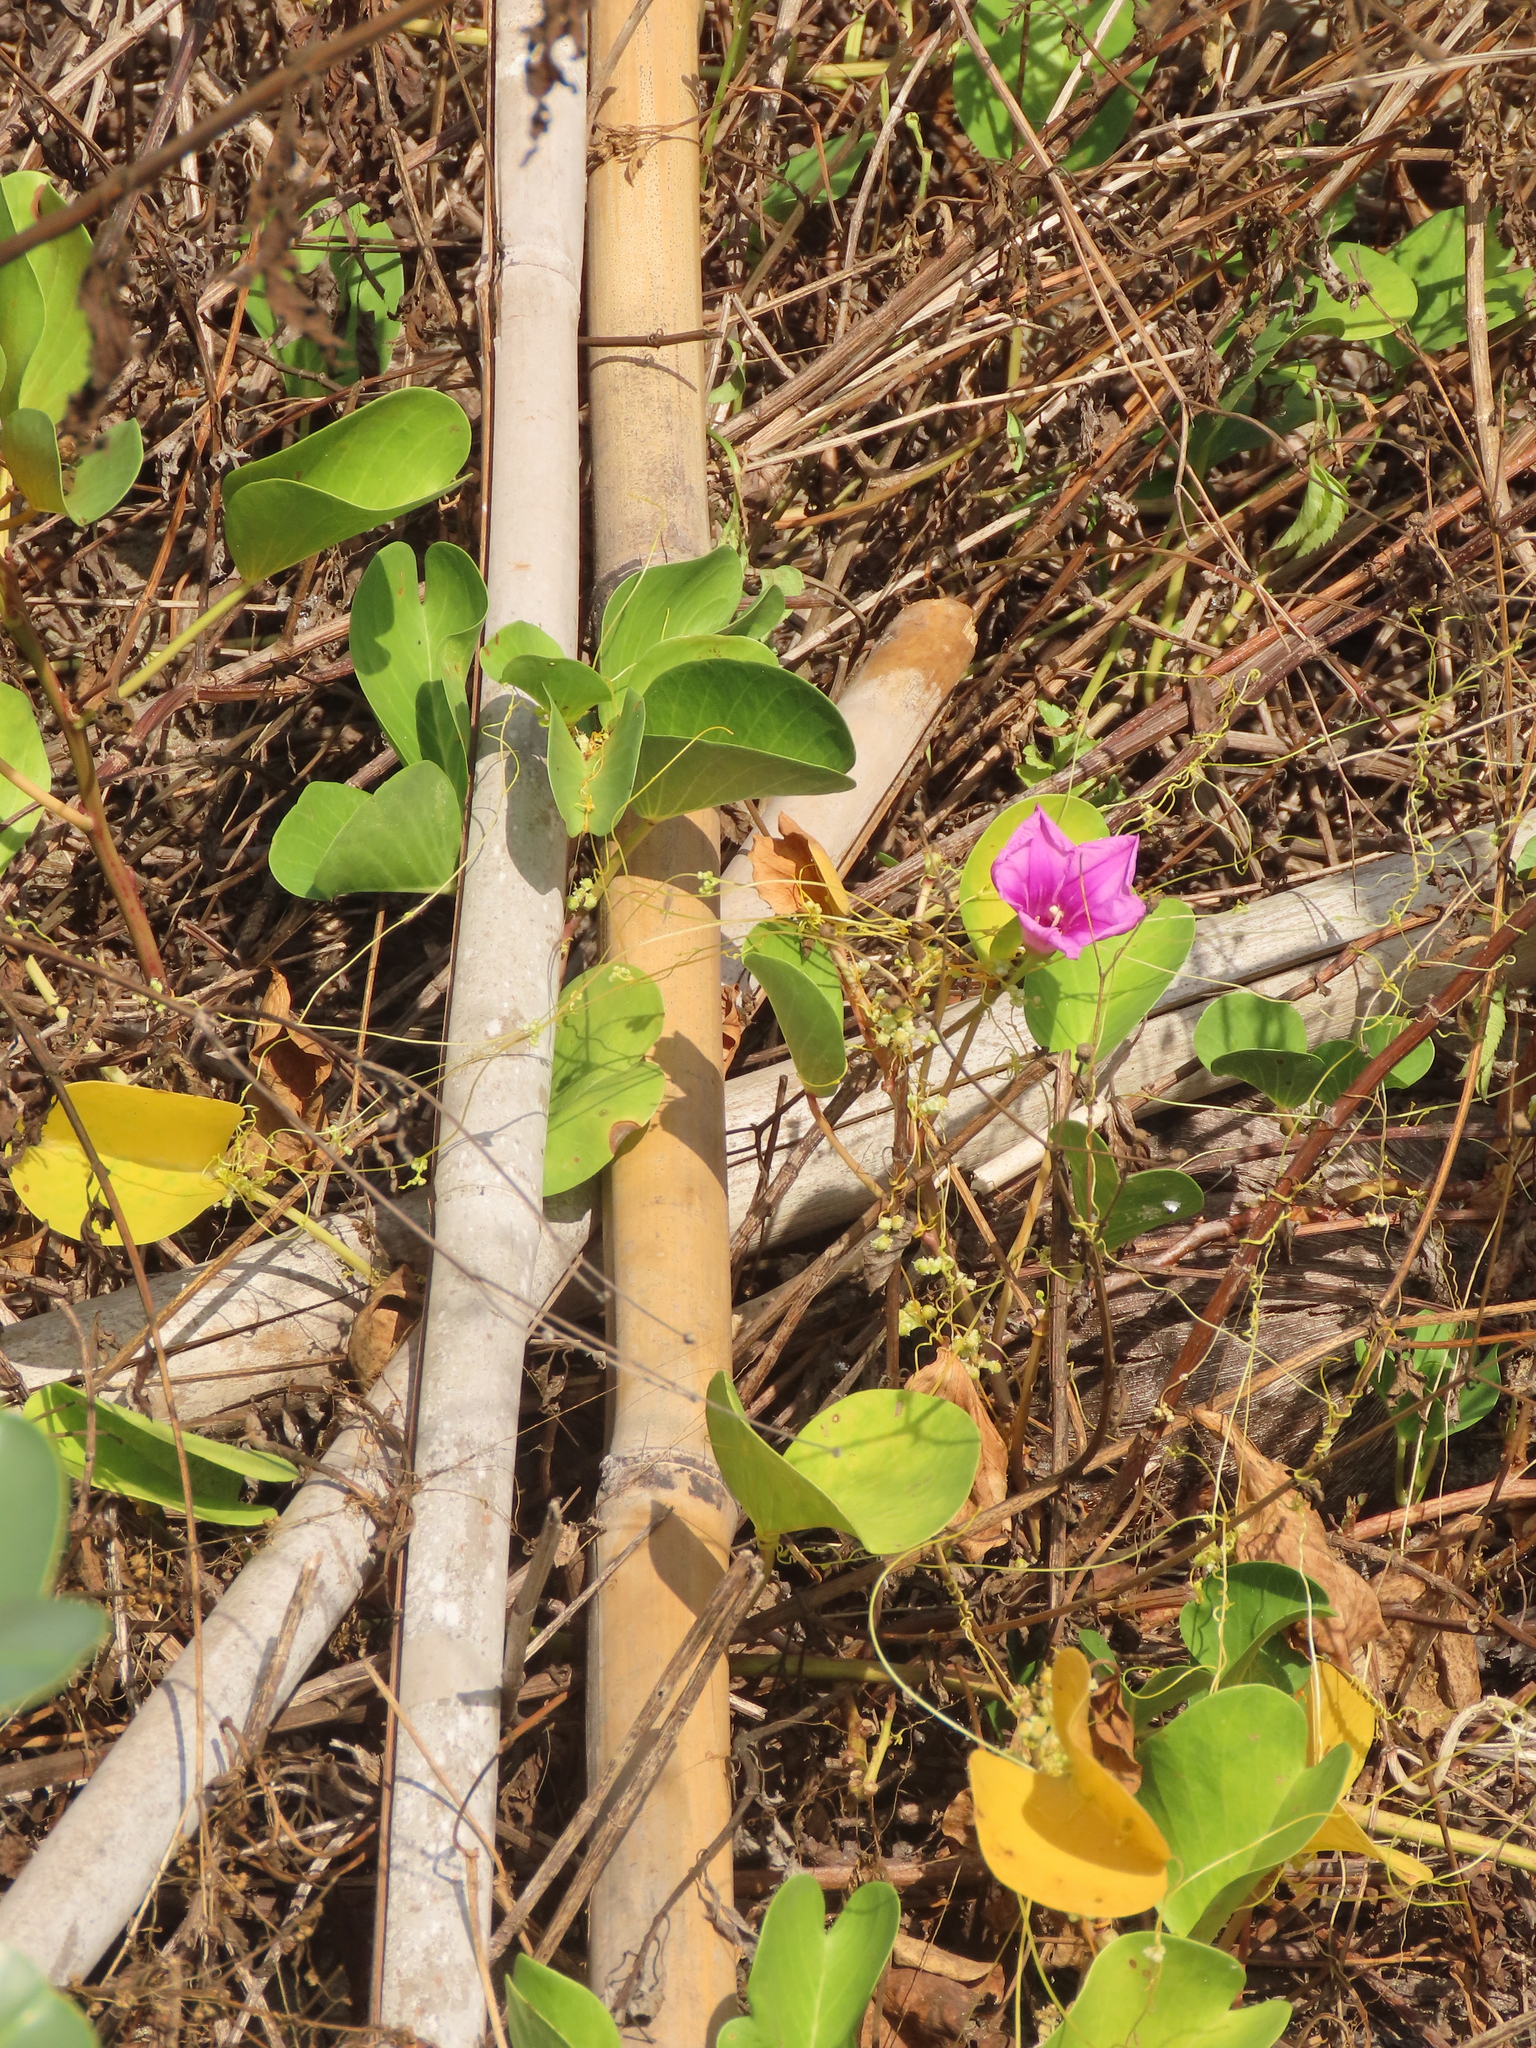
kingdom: Plantae
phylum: Tracheophyta
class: Magnoliopsida
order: Solanales
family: Convolvulaceae
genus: Ipomoea
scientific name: Ipomoea pes-caprae
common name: Beach morning glory
